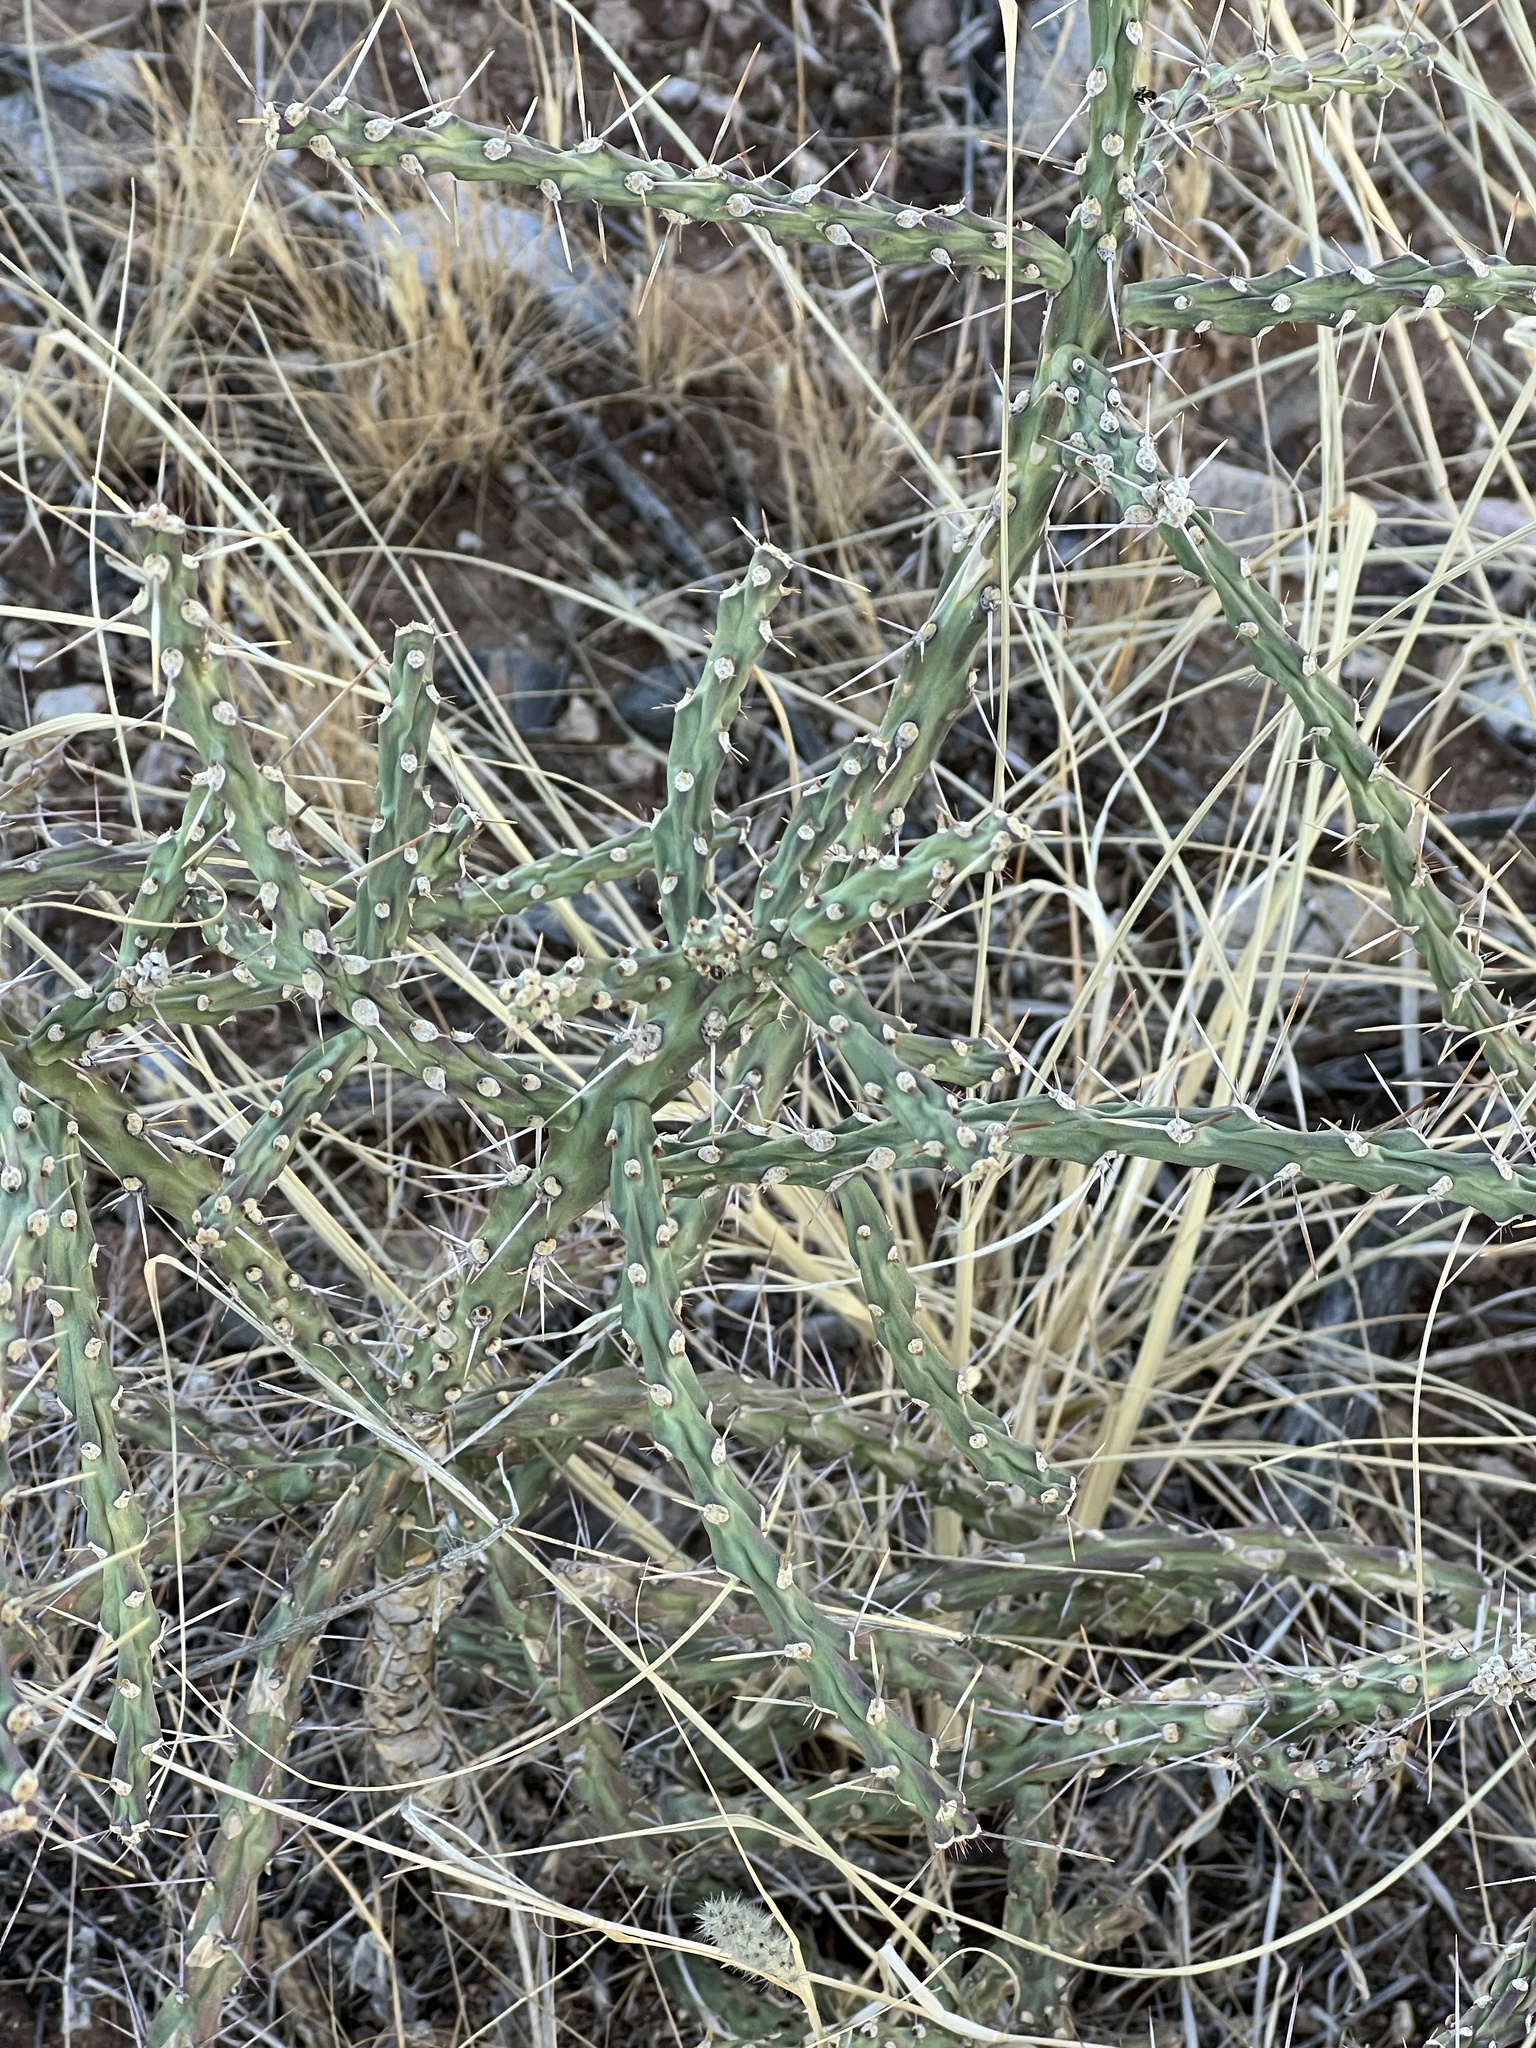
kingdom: Plantae
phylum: Tracheophyta
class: Magnoliopsida
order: Caryophyllales
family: Cactaceae
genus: Cylindropuntia
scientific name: Cylindropuntia leptocaulis
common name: Christmas cactus
